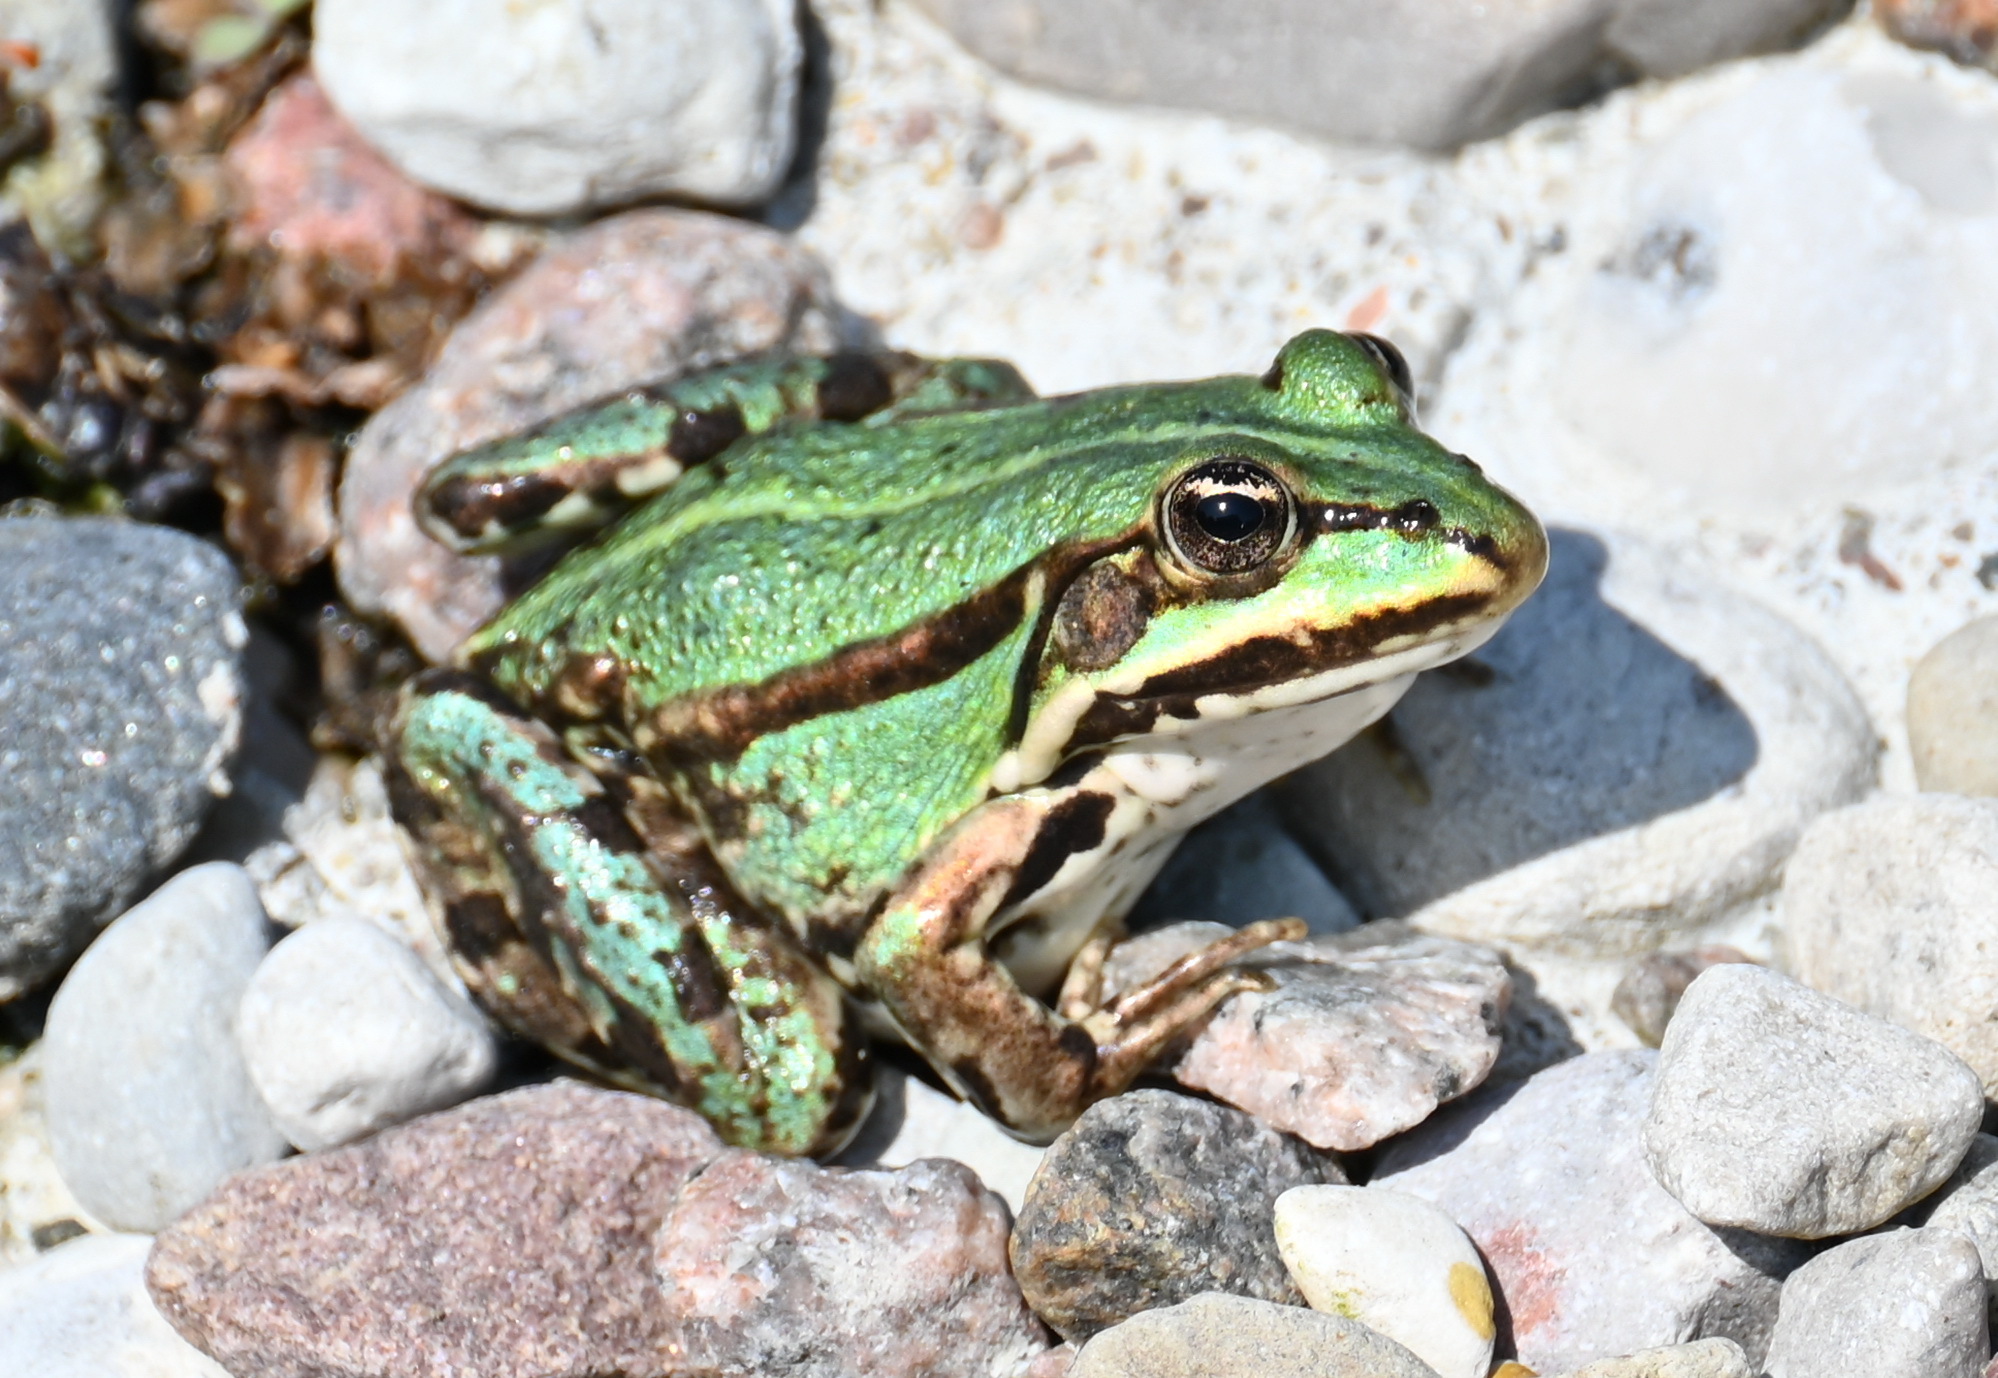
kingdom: Animalia
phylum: Chordata
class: Amphibia
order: Anura
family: Ranidae
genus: Pelophylax
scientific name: Pelophylax lessonae
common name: Pool frog
